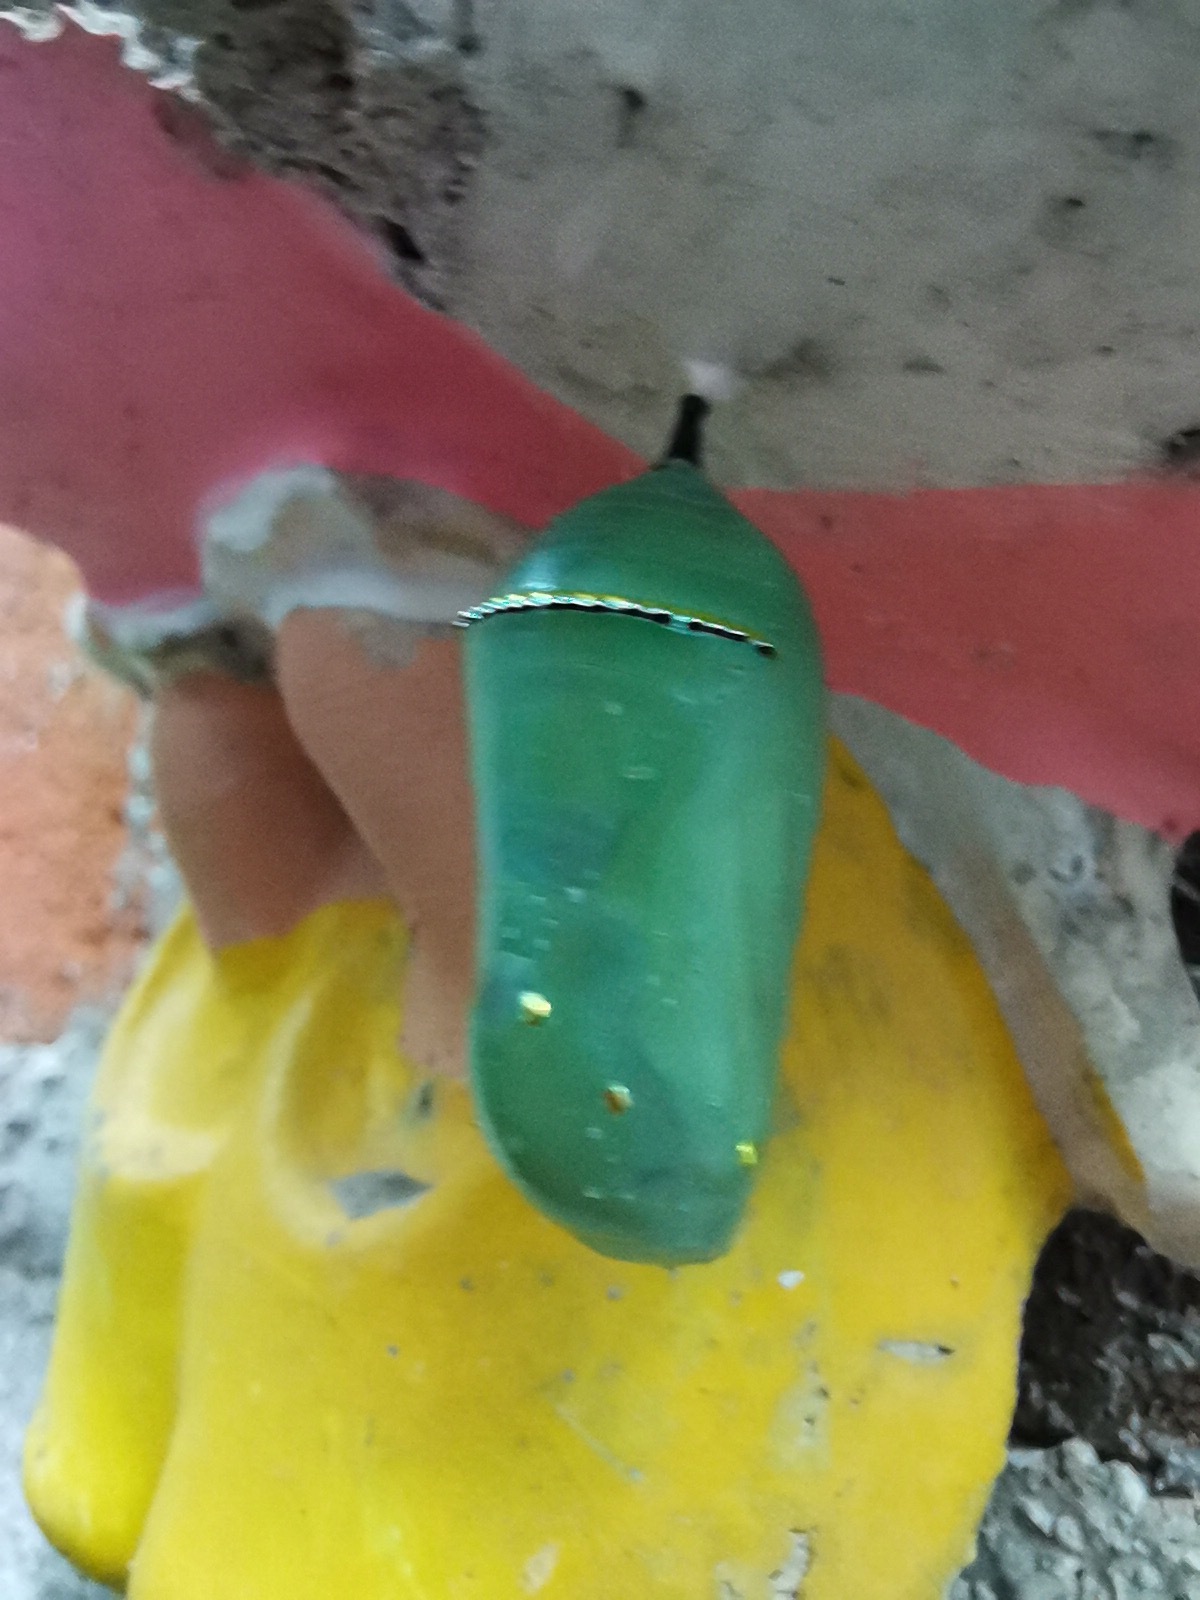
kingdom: Animalia
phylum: Arthropoda
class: Insecta
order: Lepidoptera
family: Nymphalidae
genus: Danaus
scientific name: Danaus plexippus
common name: Monarch
